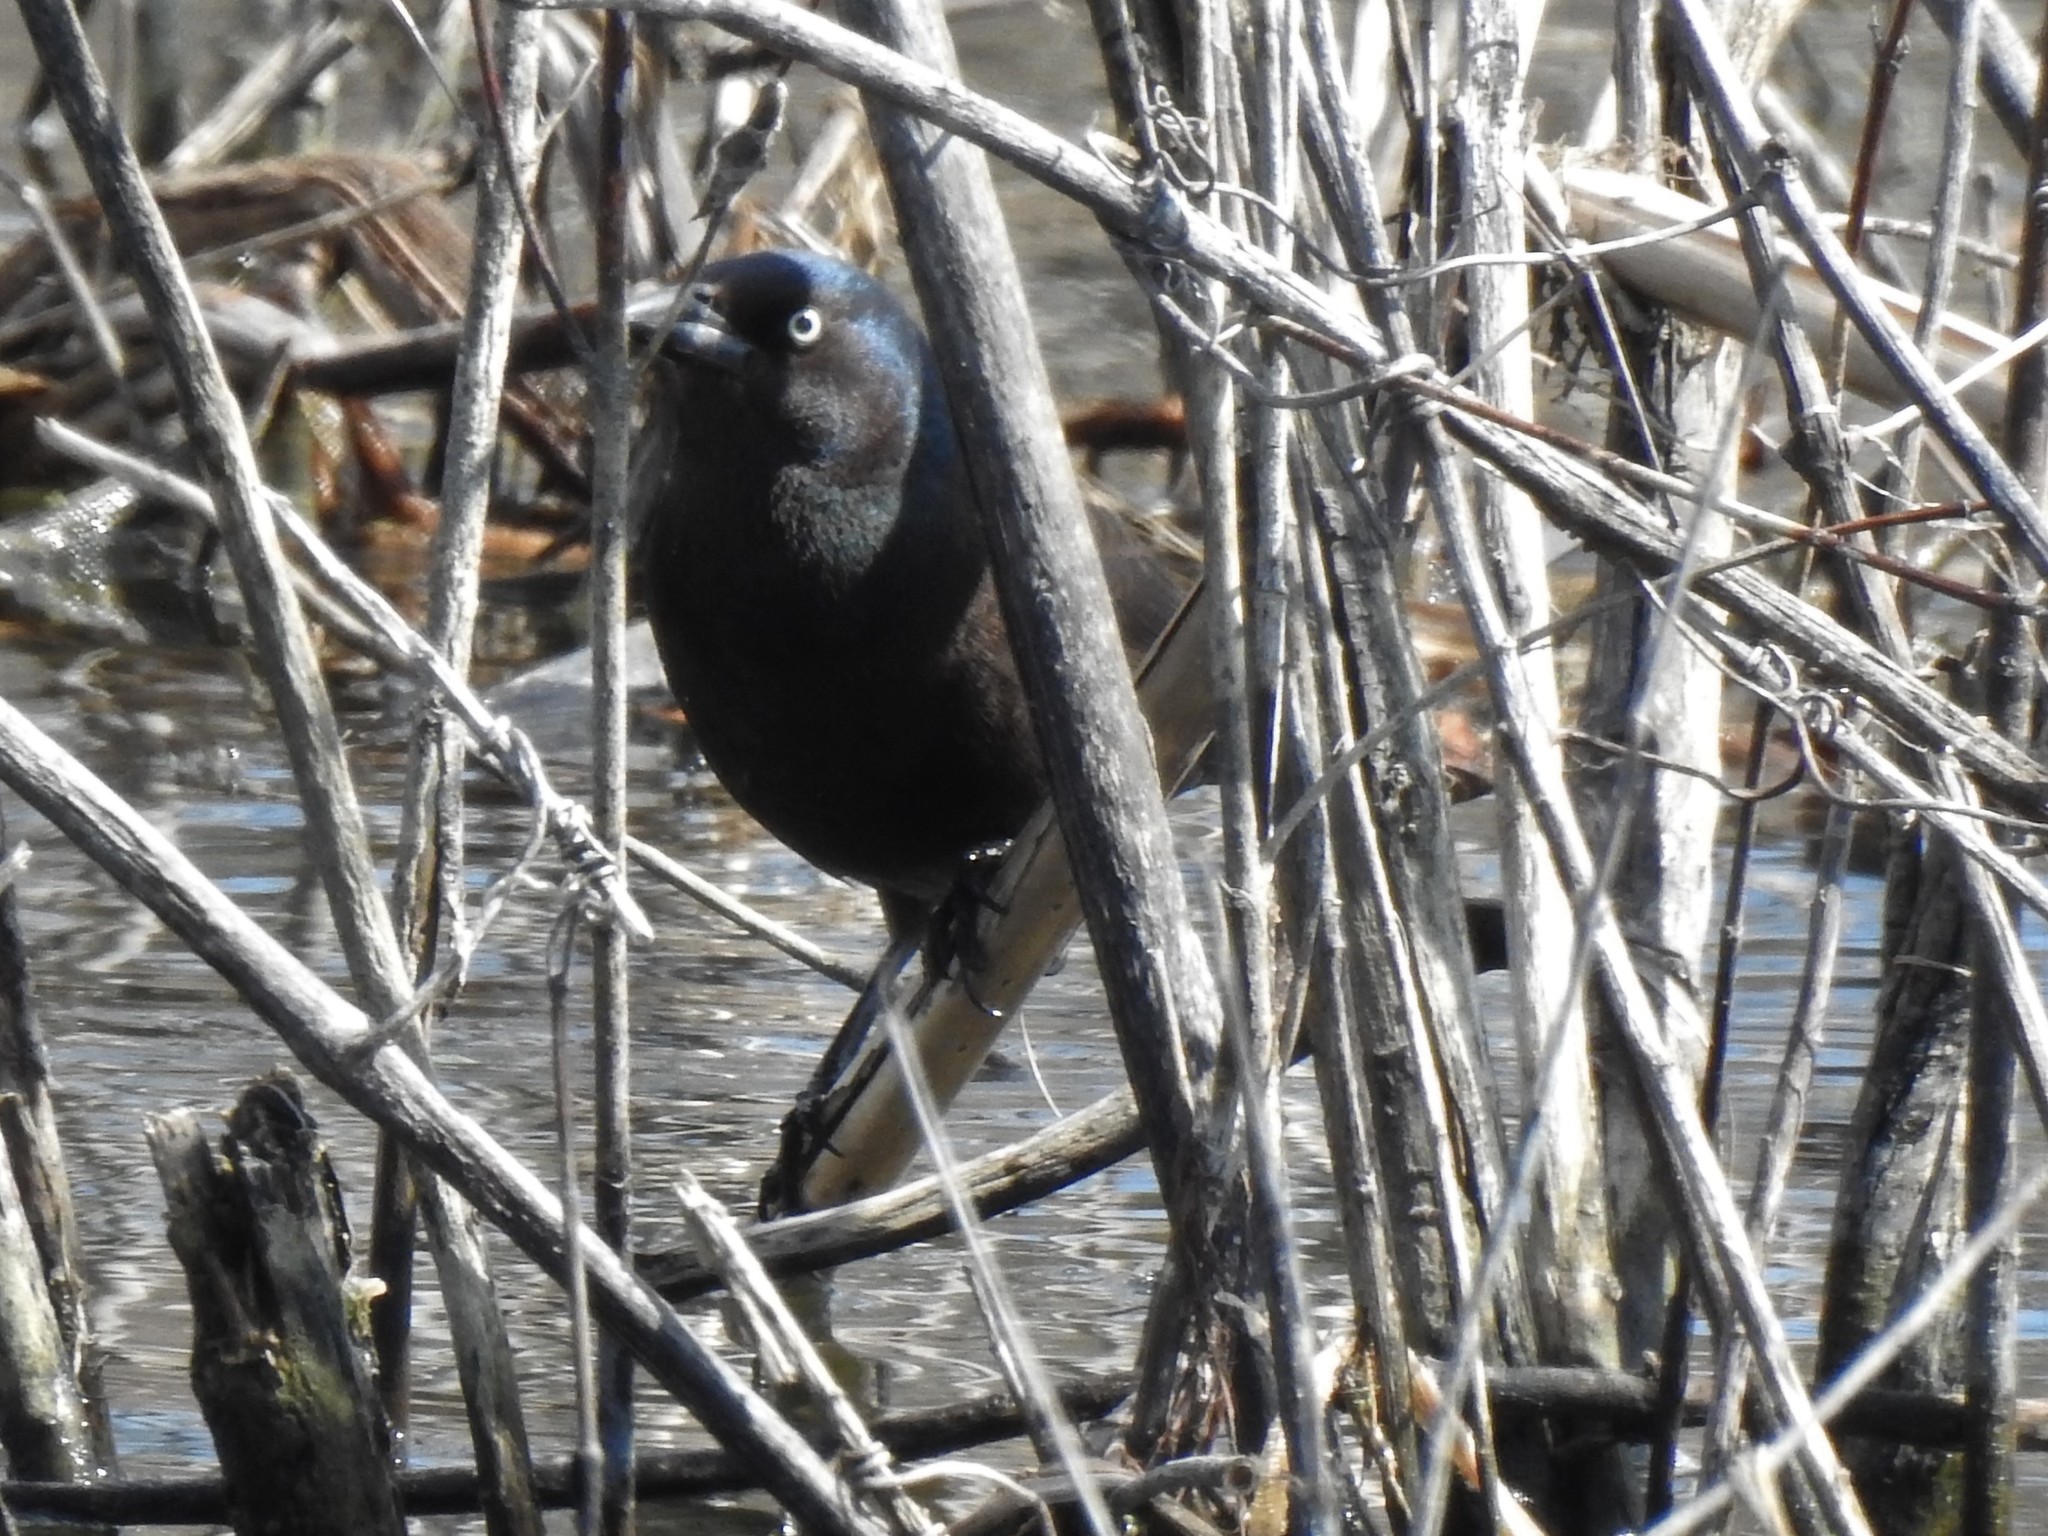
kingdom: Animalia
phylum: Chordata
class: Aves
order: Passeriformes
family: Icteridae
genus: Quiscalus
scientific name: Quiscalus quiscula
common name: Common grackle
